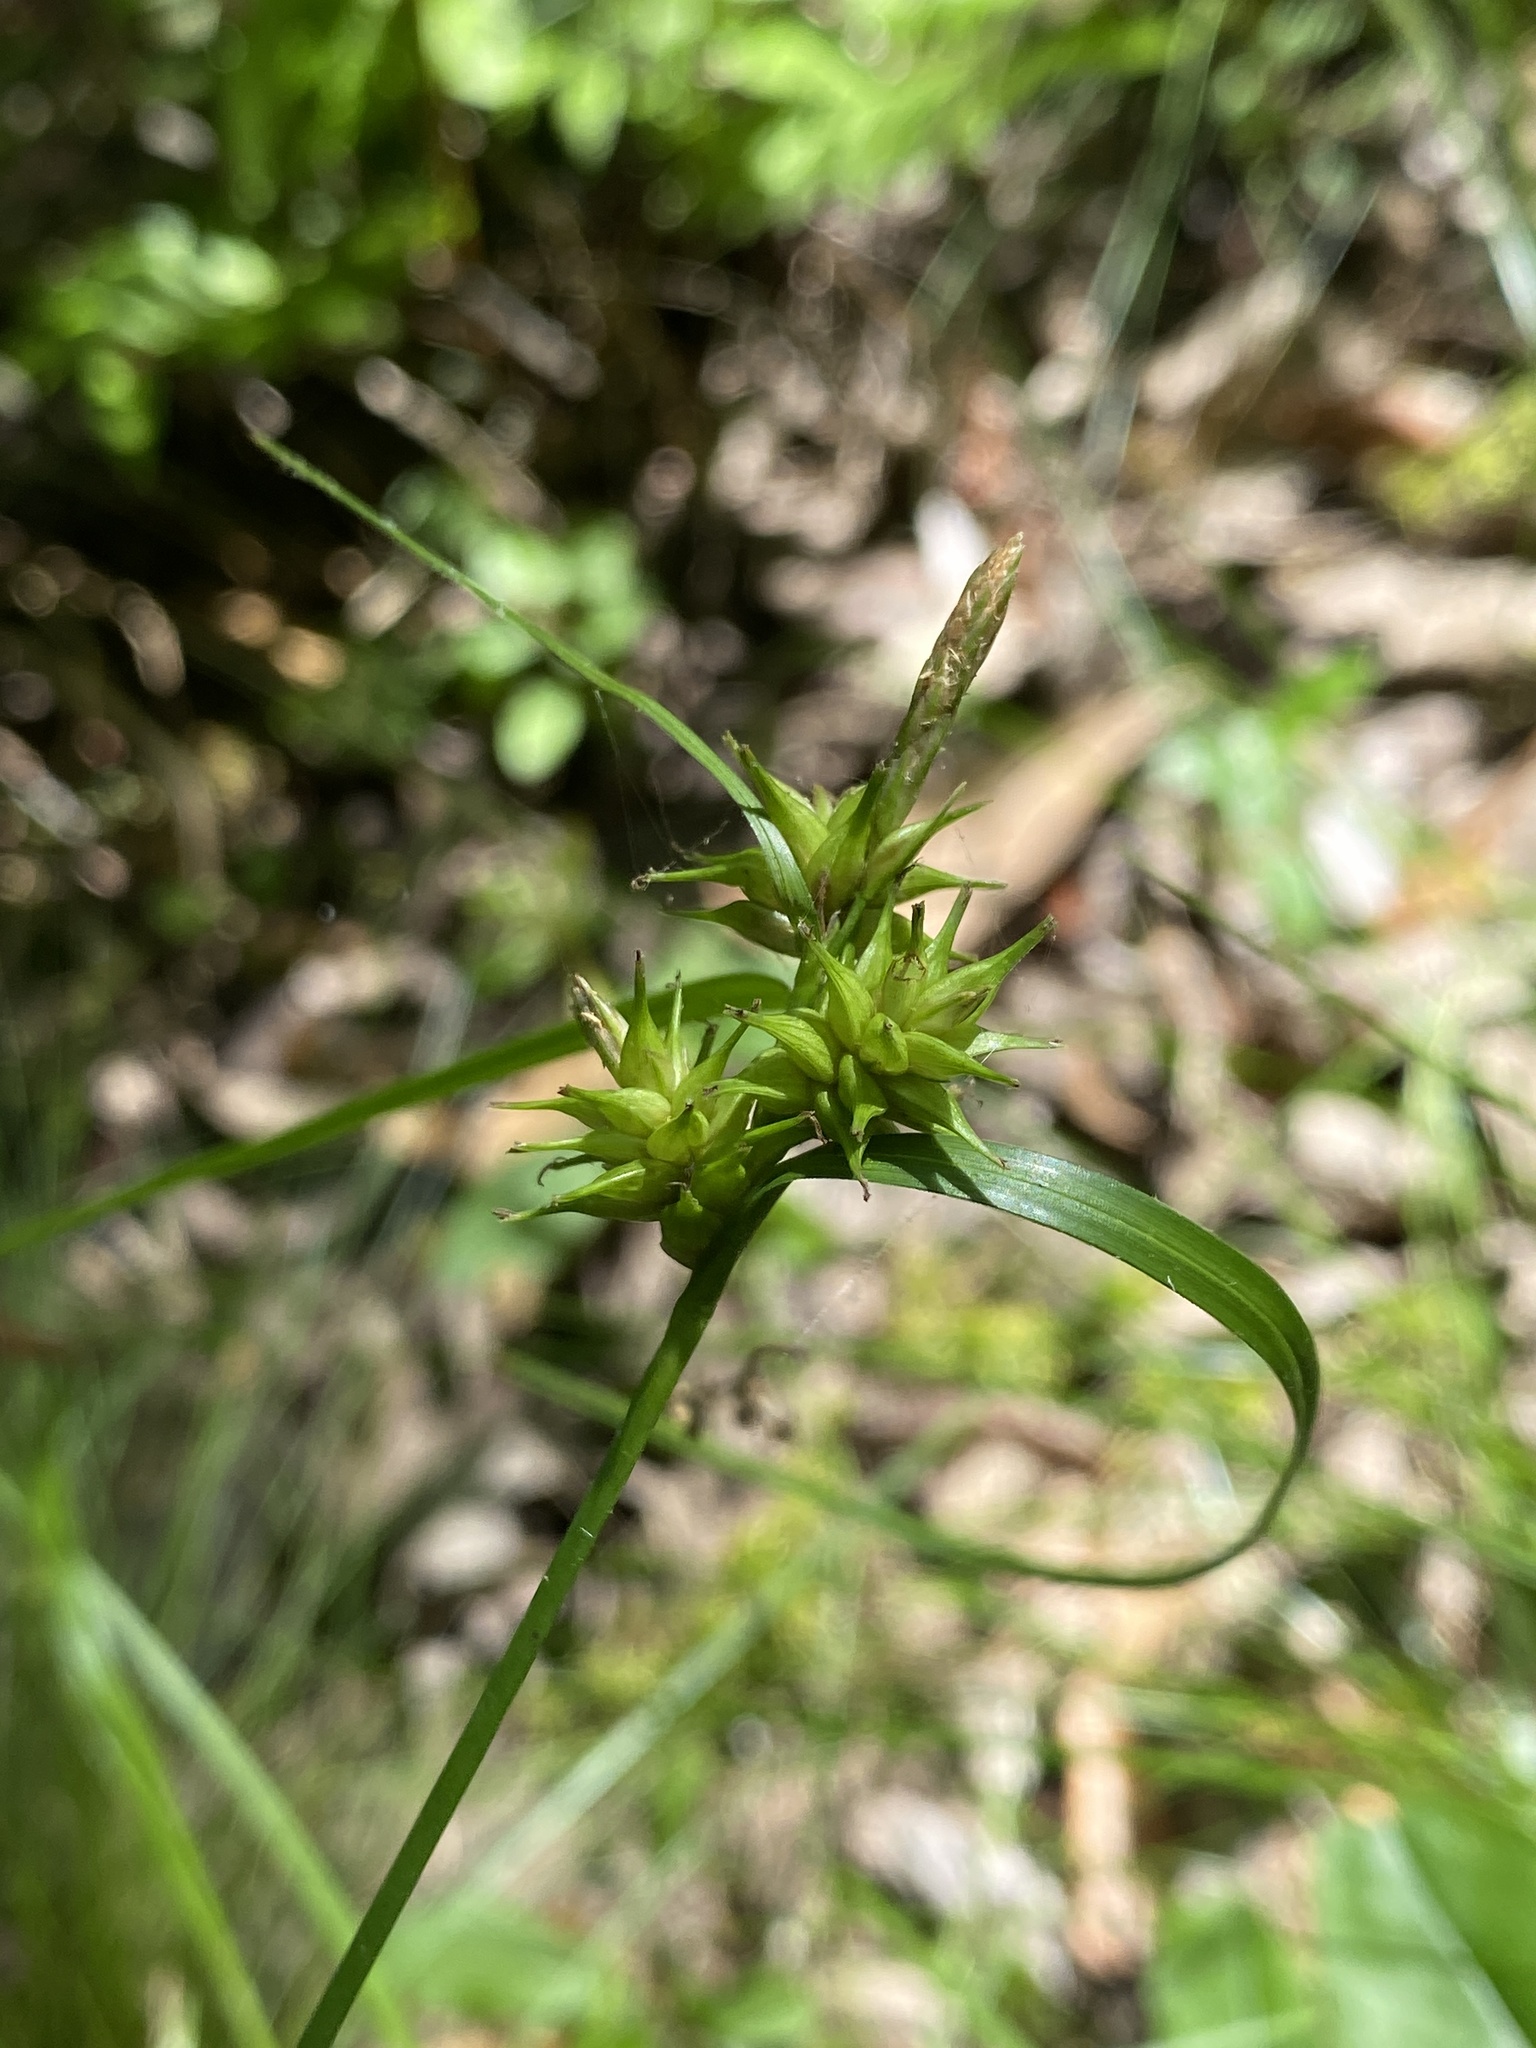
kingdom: Plantae
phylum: Tracheophyta
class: Liliopsida
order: Poales
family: Cyperaceae
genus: Carex
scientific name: Carex elliottii
